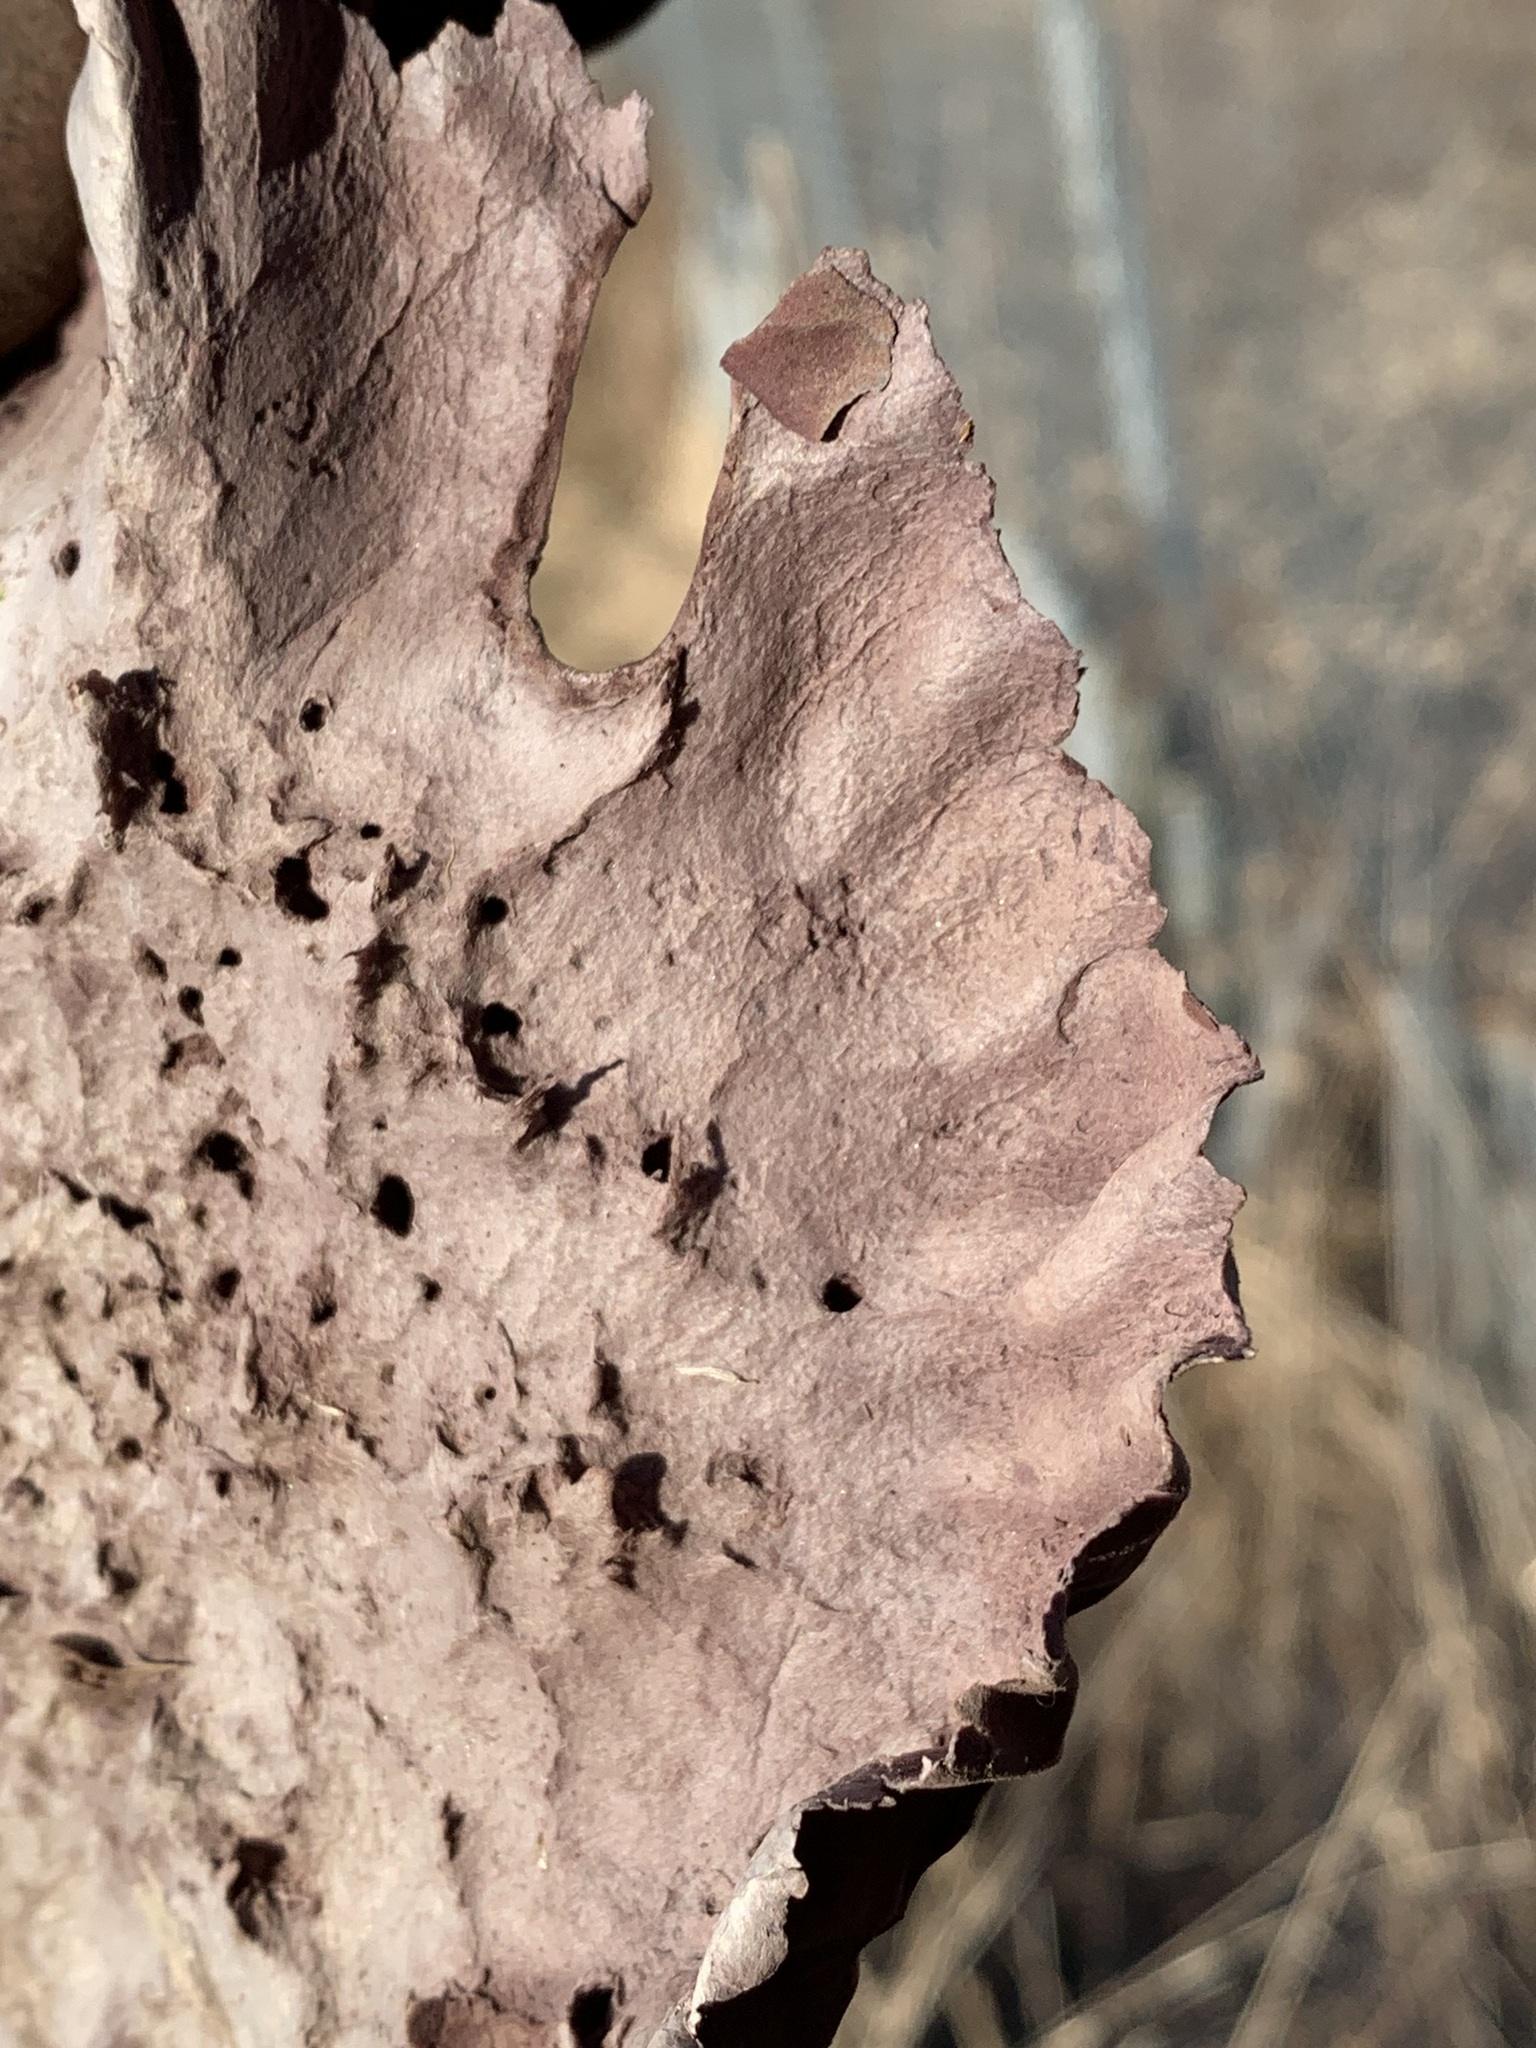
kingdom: Fungi
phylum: Basidiomycota
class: Agaricomycetes
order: Agaricales
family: Lycoperdaceae
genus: Calvatia
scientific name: Calvatia cyathiformis
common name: Purple-spored puffball
